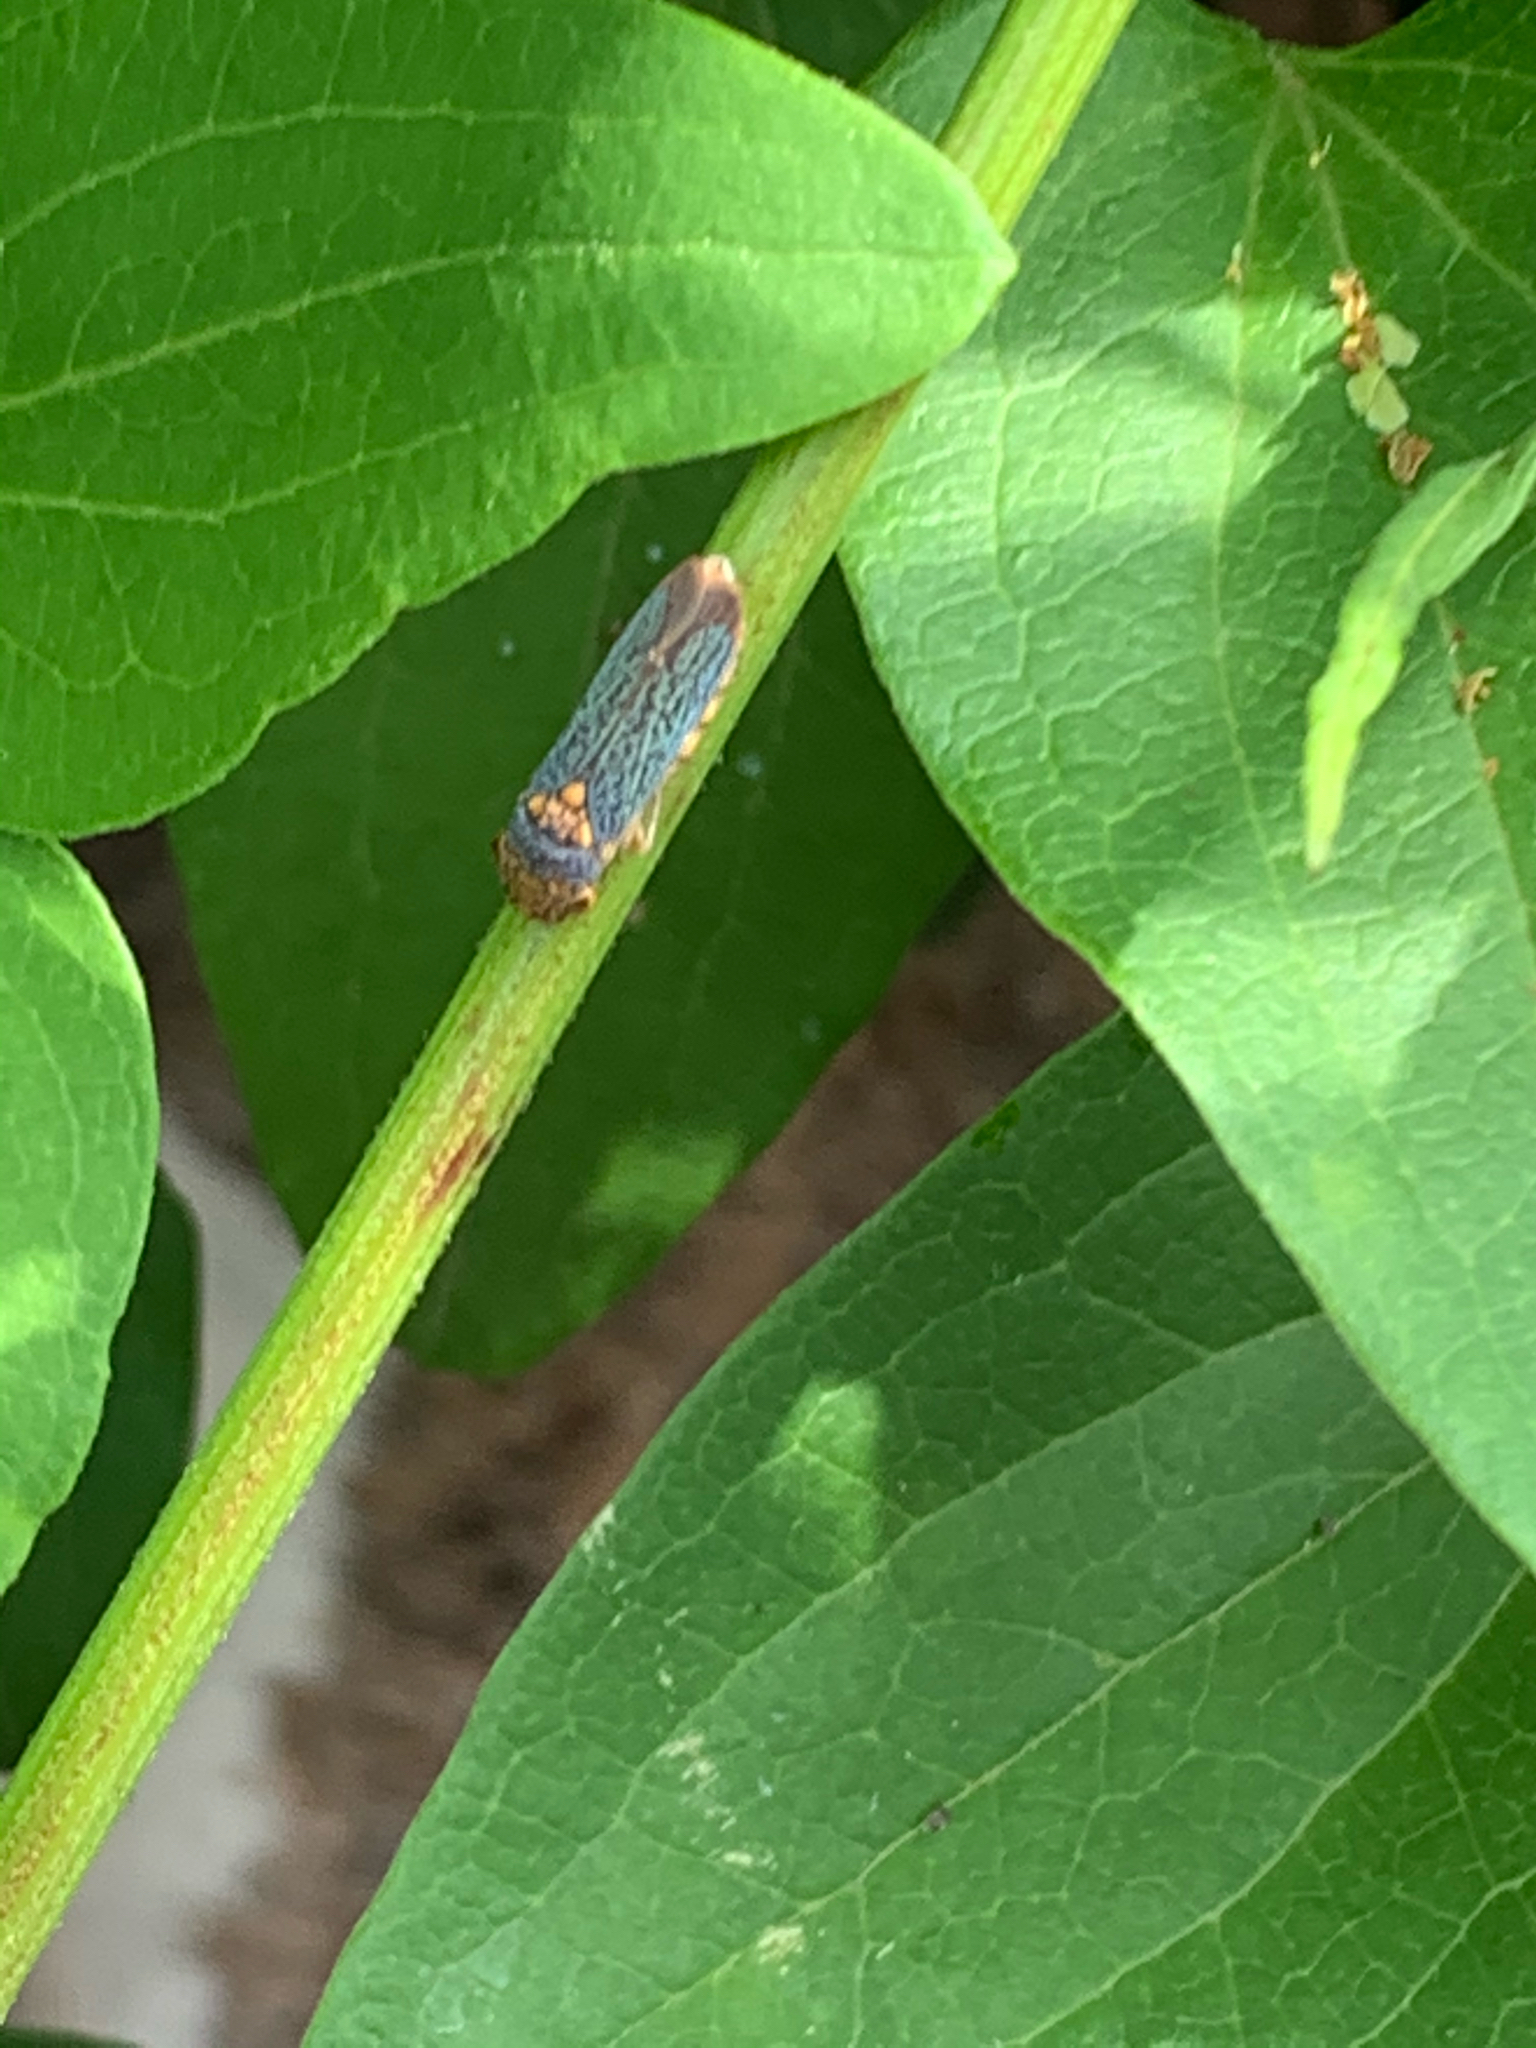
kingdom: Animalia
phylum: Arthropoda
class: Insecta
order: Hemiptera
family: Cicadellidae
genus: Oncometopia
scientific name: Oncometopia orbona
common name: Broad-headed sharpshooter
